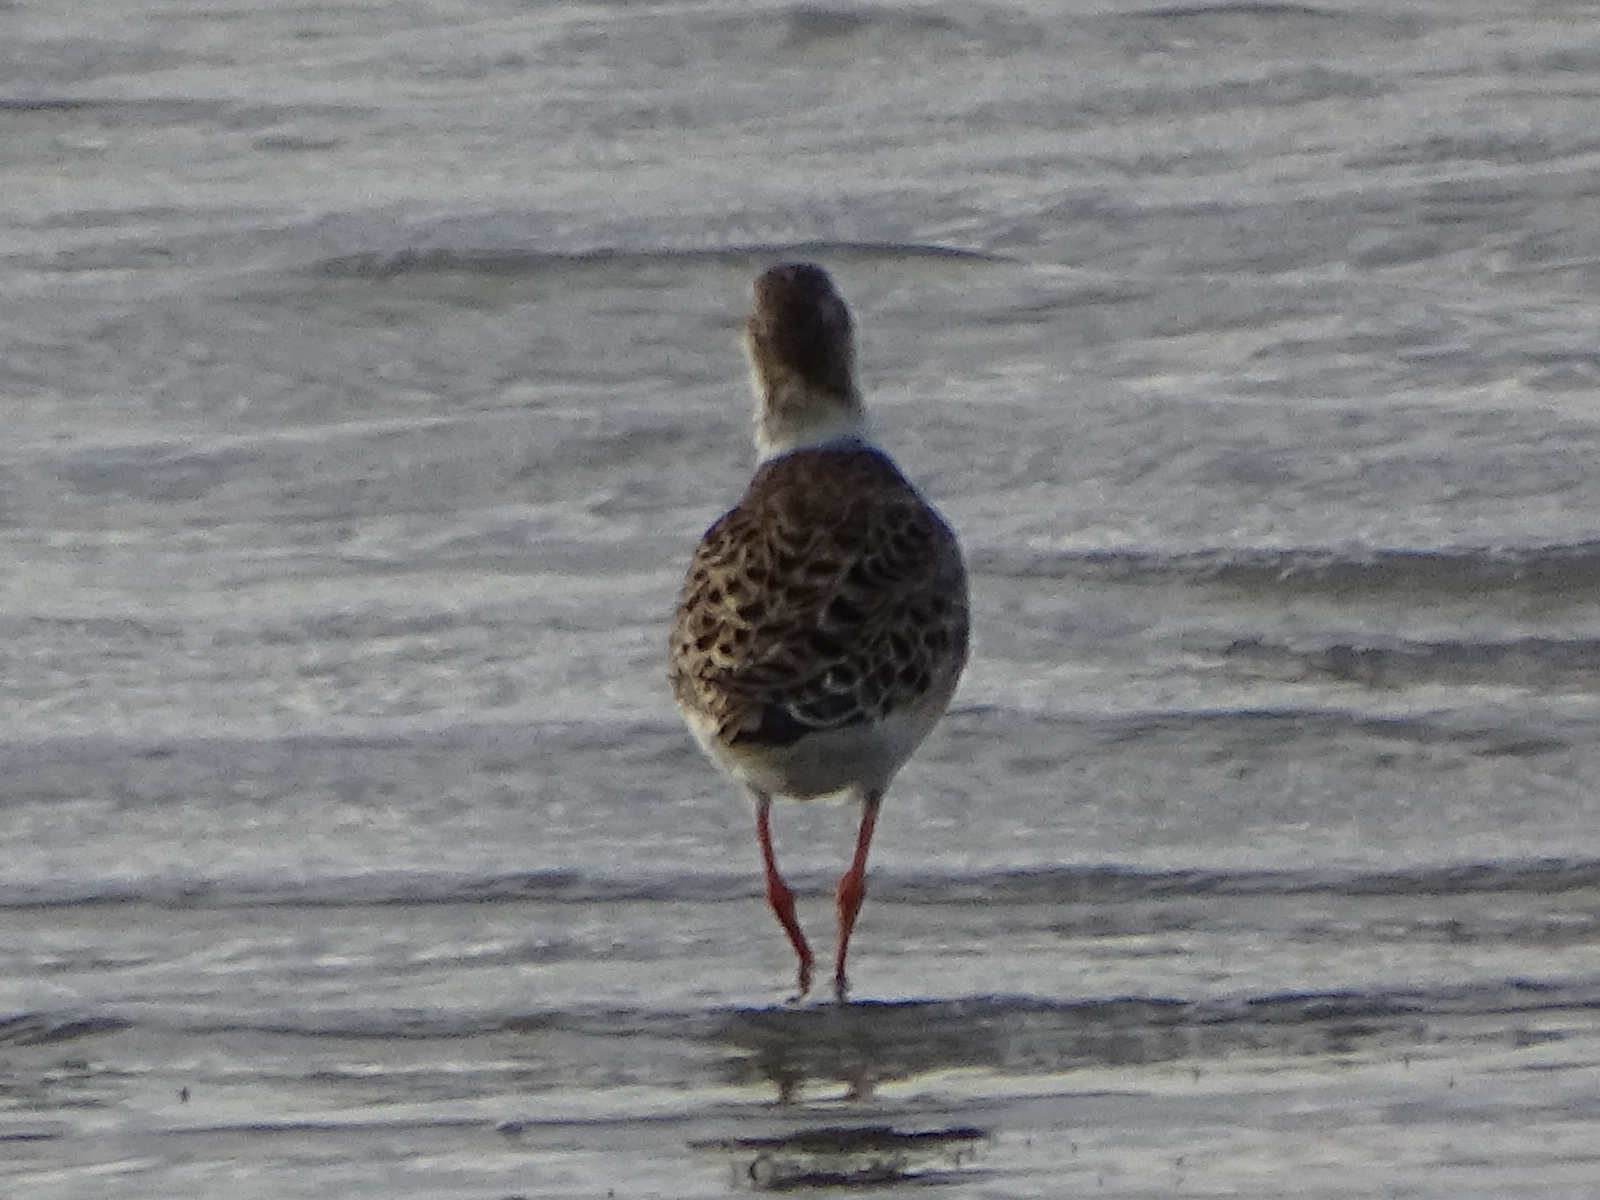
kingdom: Animalia
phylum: Chordata
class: Aves
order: Charadriiformes
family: Scolopacidae
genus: Calidris
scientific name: Calidris pugnax
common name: Ruff
